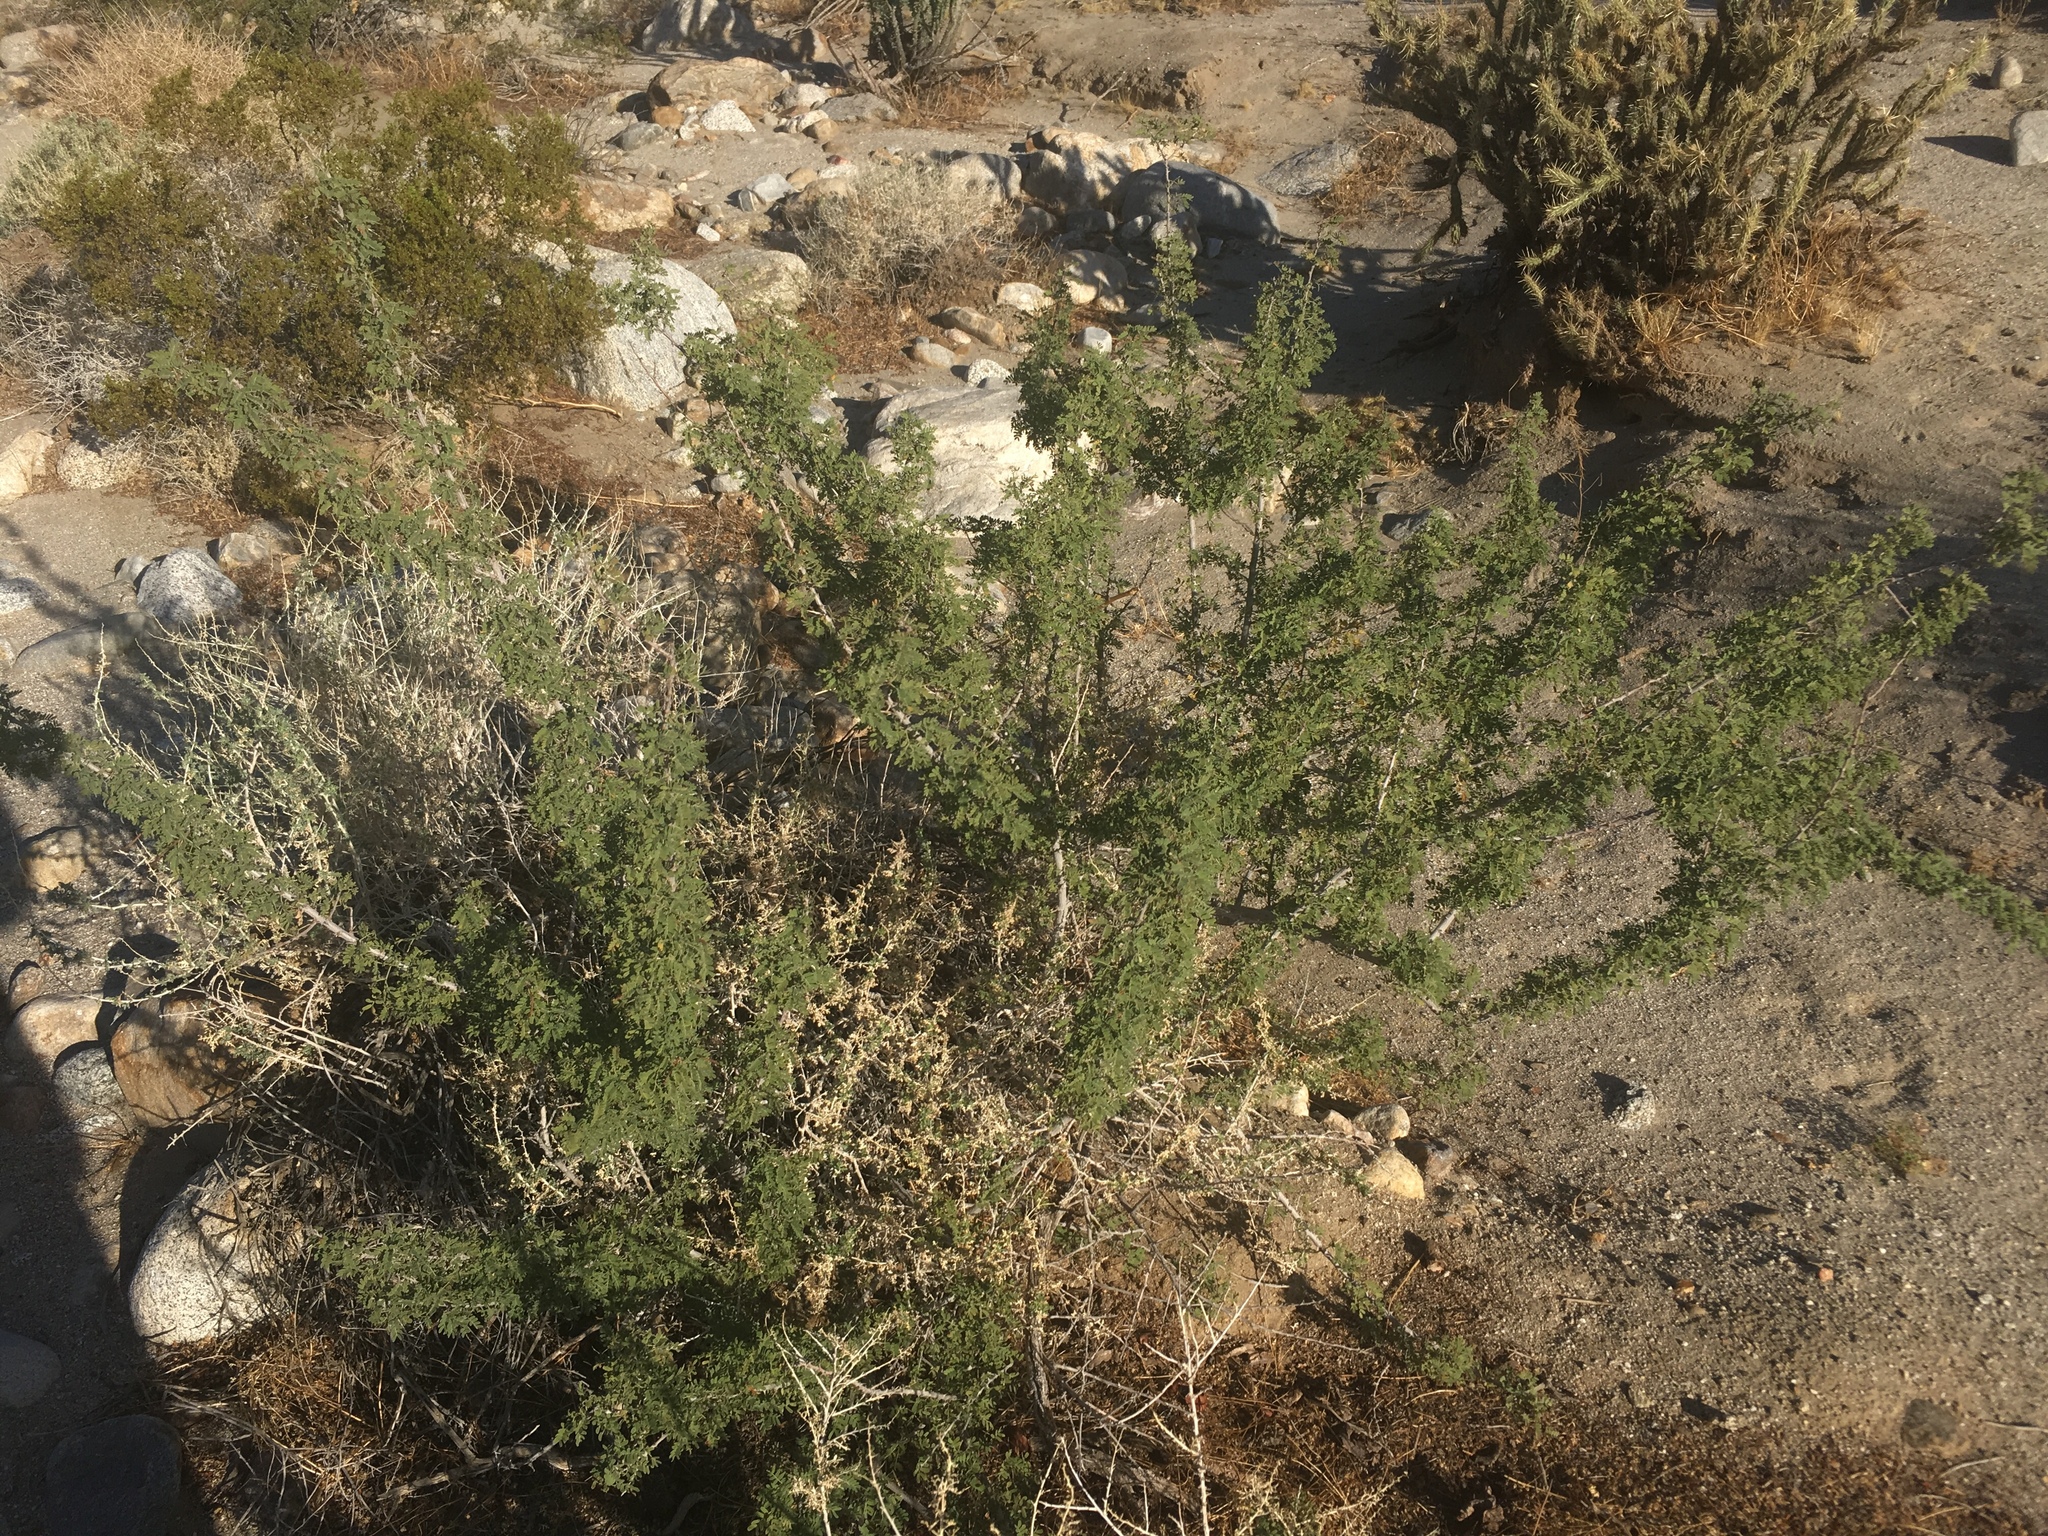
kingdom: Plantae
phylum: Tracheophyta
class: Magnoliopsida
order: Fabales
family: Fabaceae
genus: Senegalia
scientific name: Senegalia greggii
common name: Texas-mimosa
